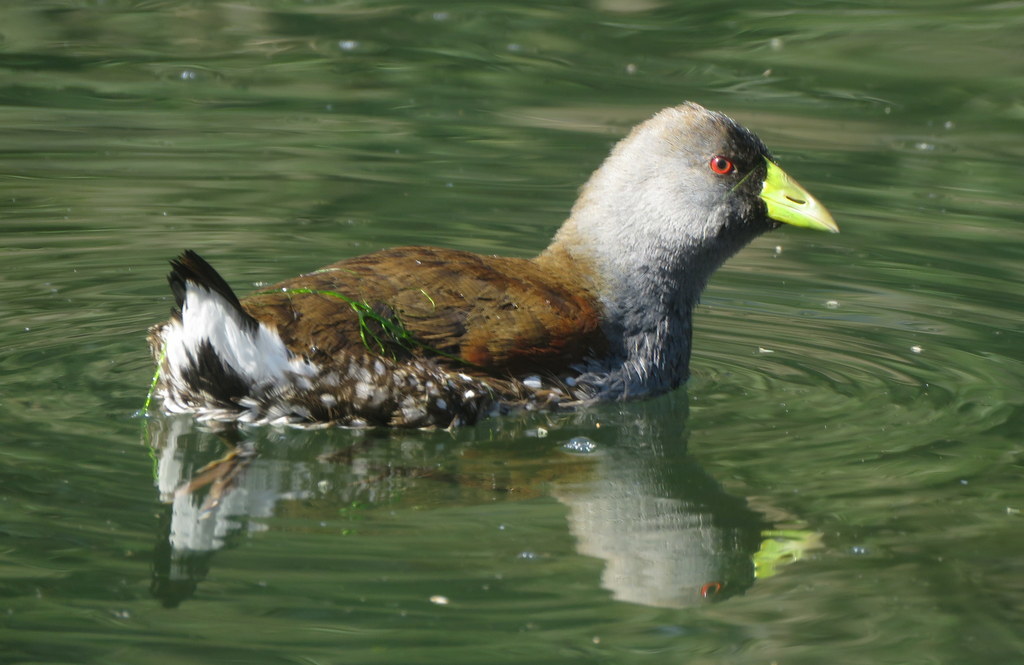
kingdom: Animalia
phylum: Chordata
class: Aves
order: Gruiformes
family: Rallidae
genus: Gallinula
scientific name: Gallinula melanops
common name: Spot-flanked gallinule
